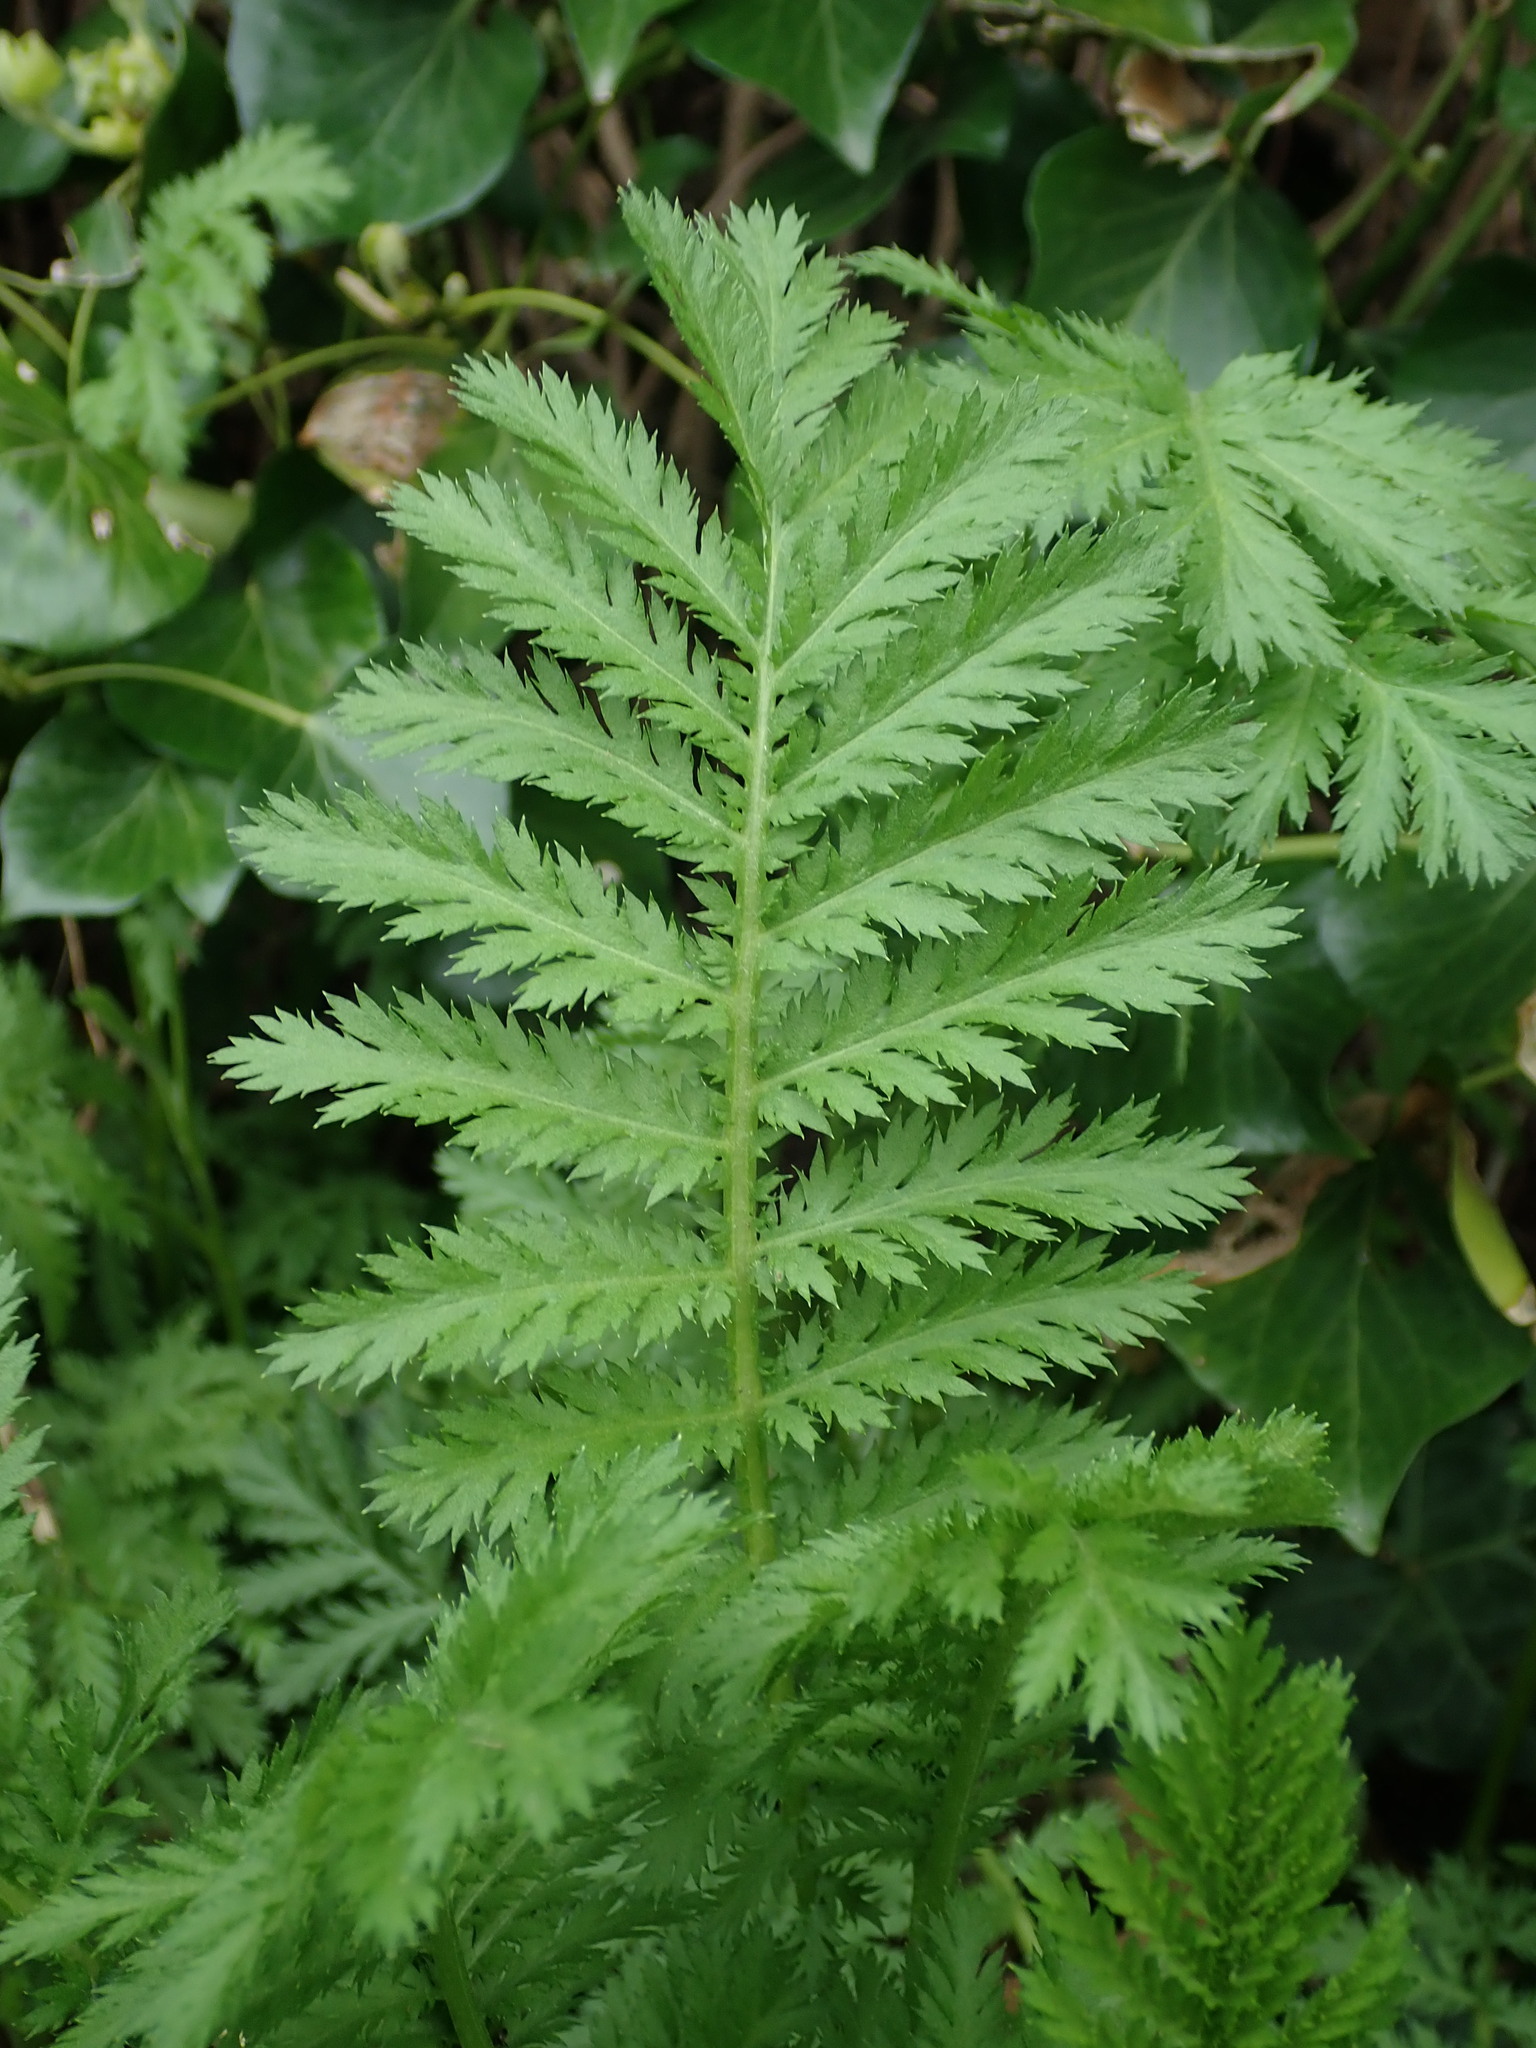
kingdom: Plantae
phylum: Tracheophyta
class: Magnoliopsida
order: Asterales
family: Asteraceae
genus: Tanacetum
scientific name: Tanacetum vulgare
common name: Common tansy
